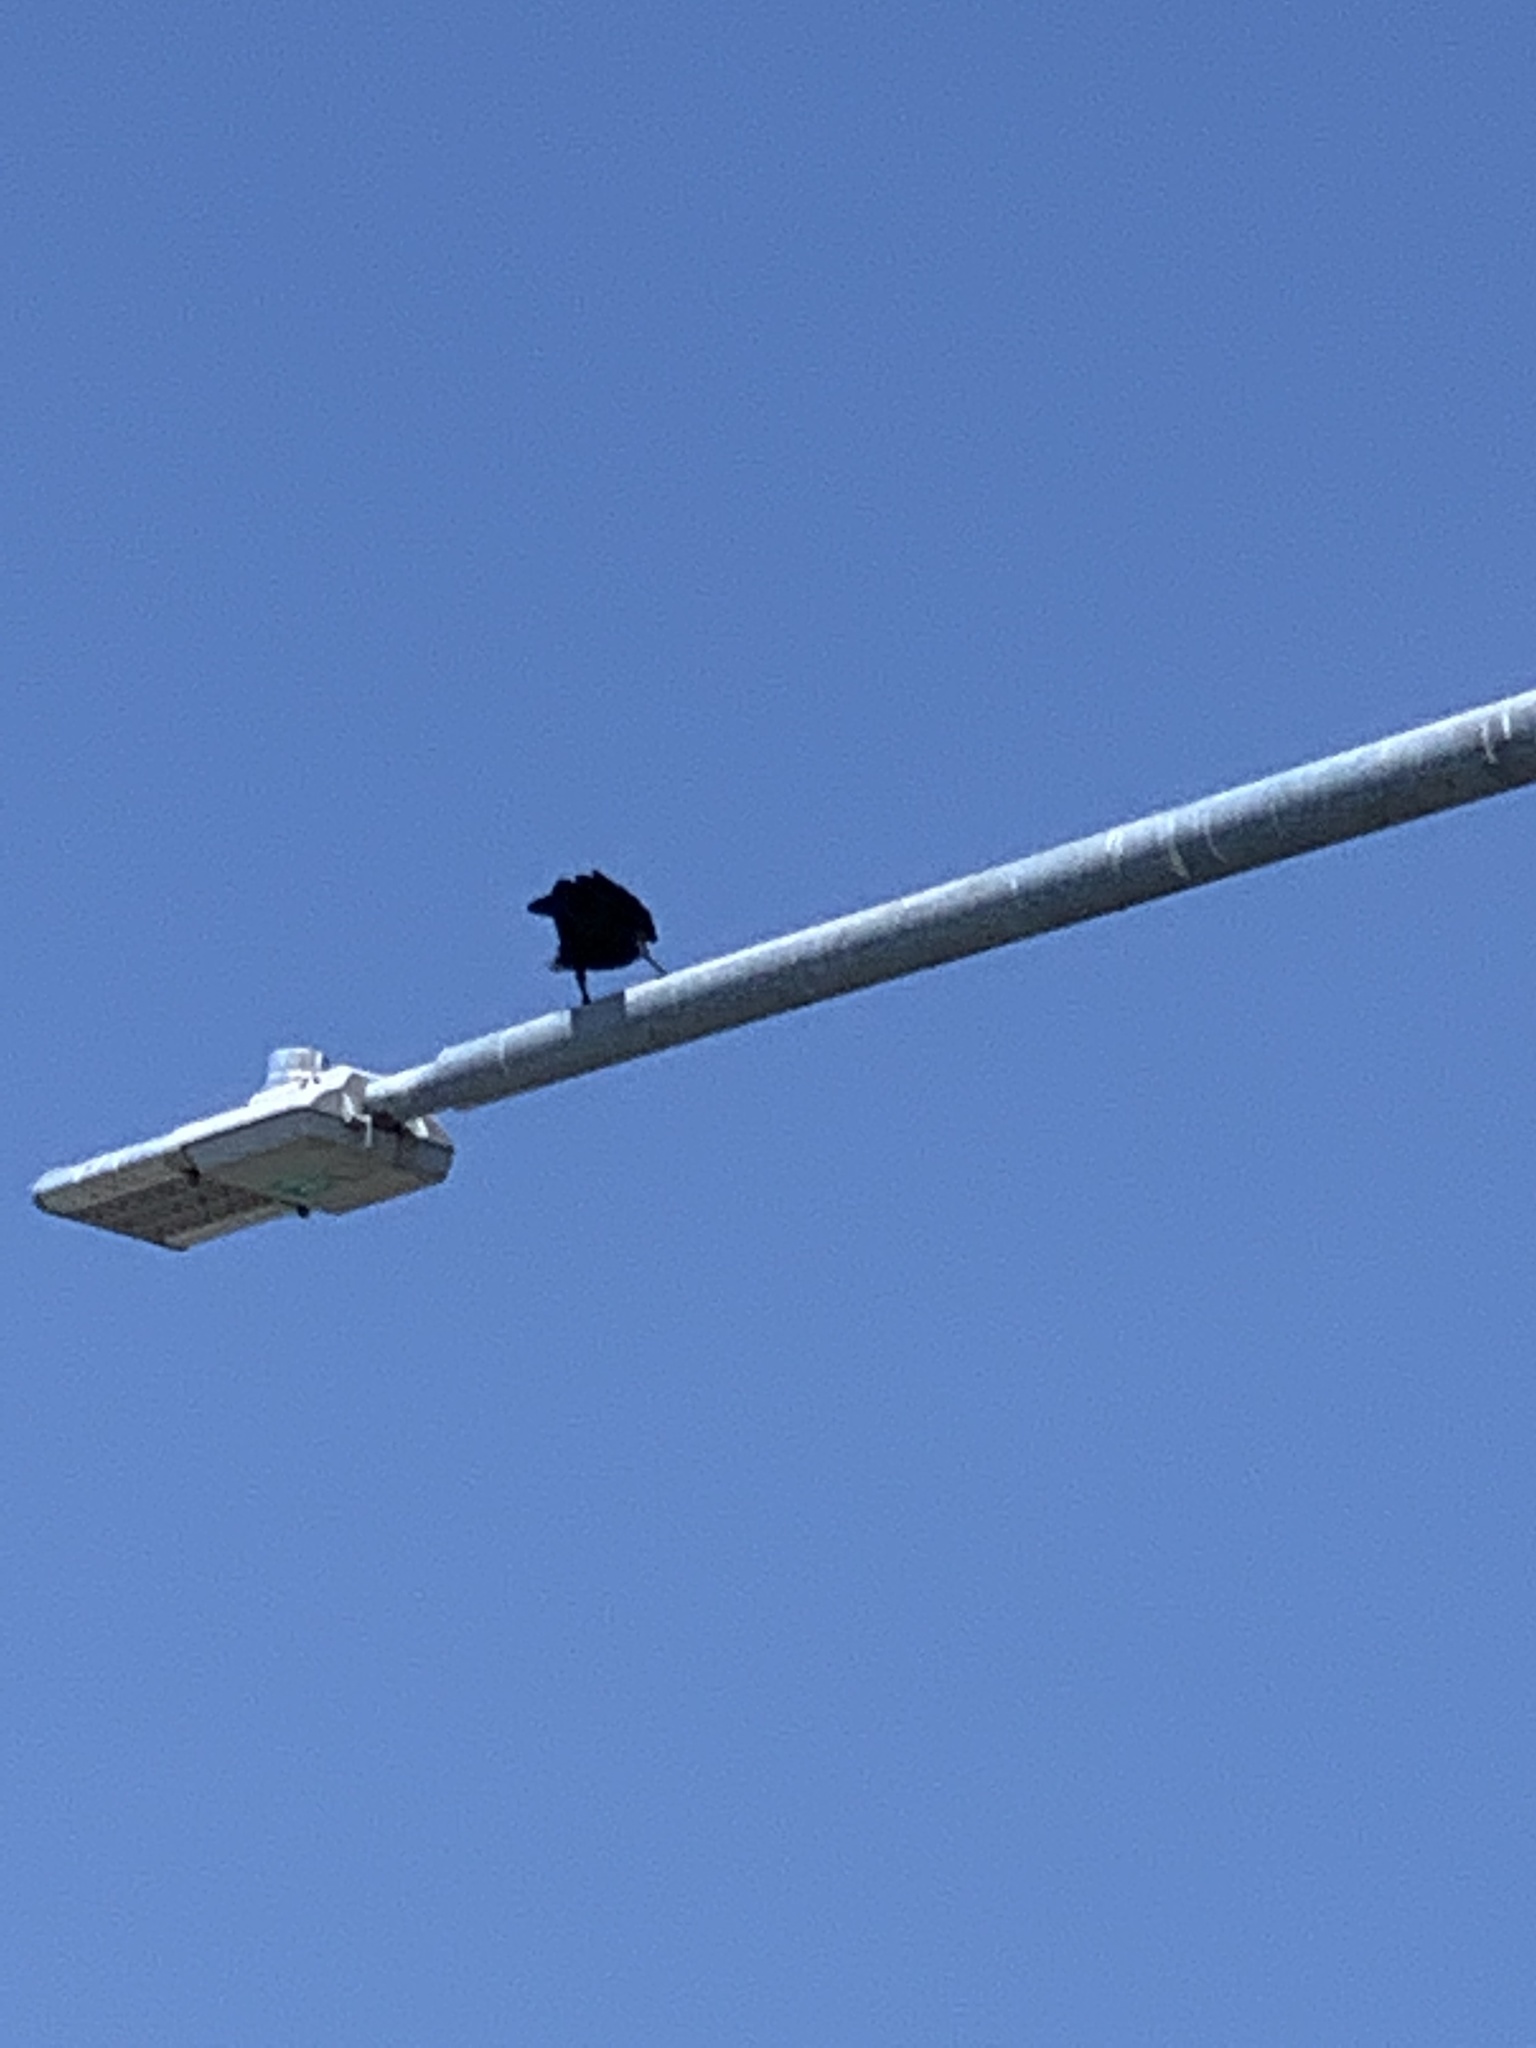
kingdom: Animalia
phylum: Chordata
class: Aves
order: Passeriformes
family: Corvidae
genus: Corvus
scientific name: Corvus brachyrhynchos
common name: American crow
